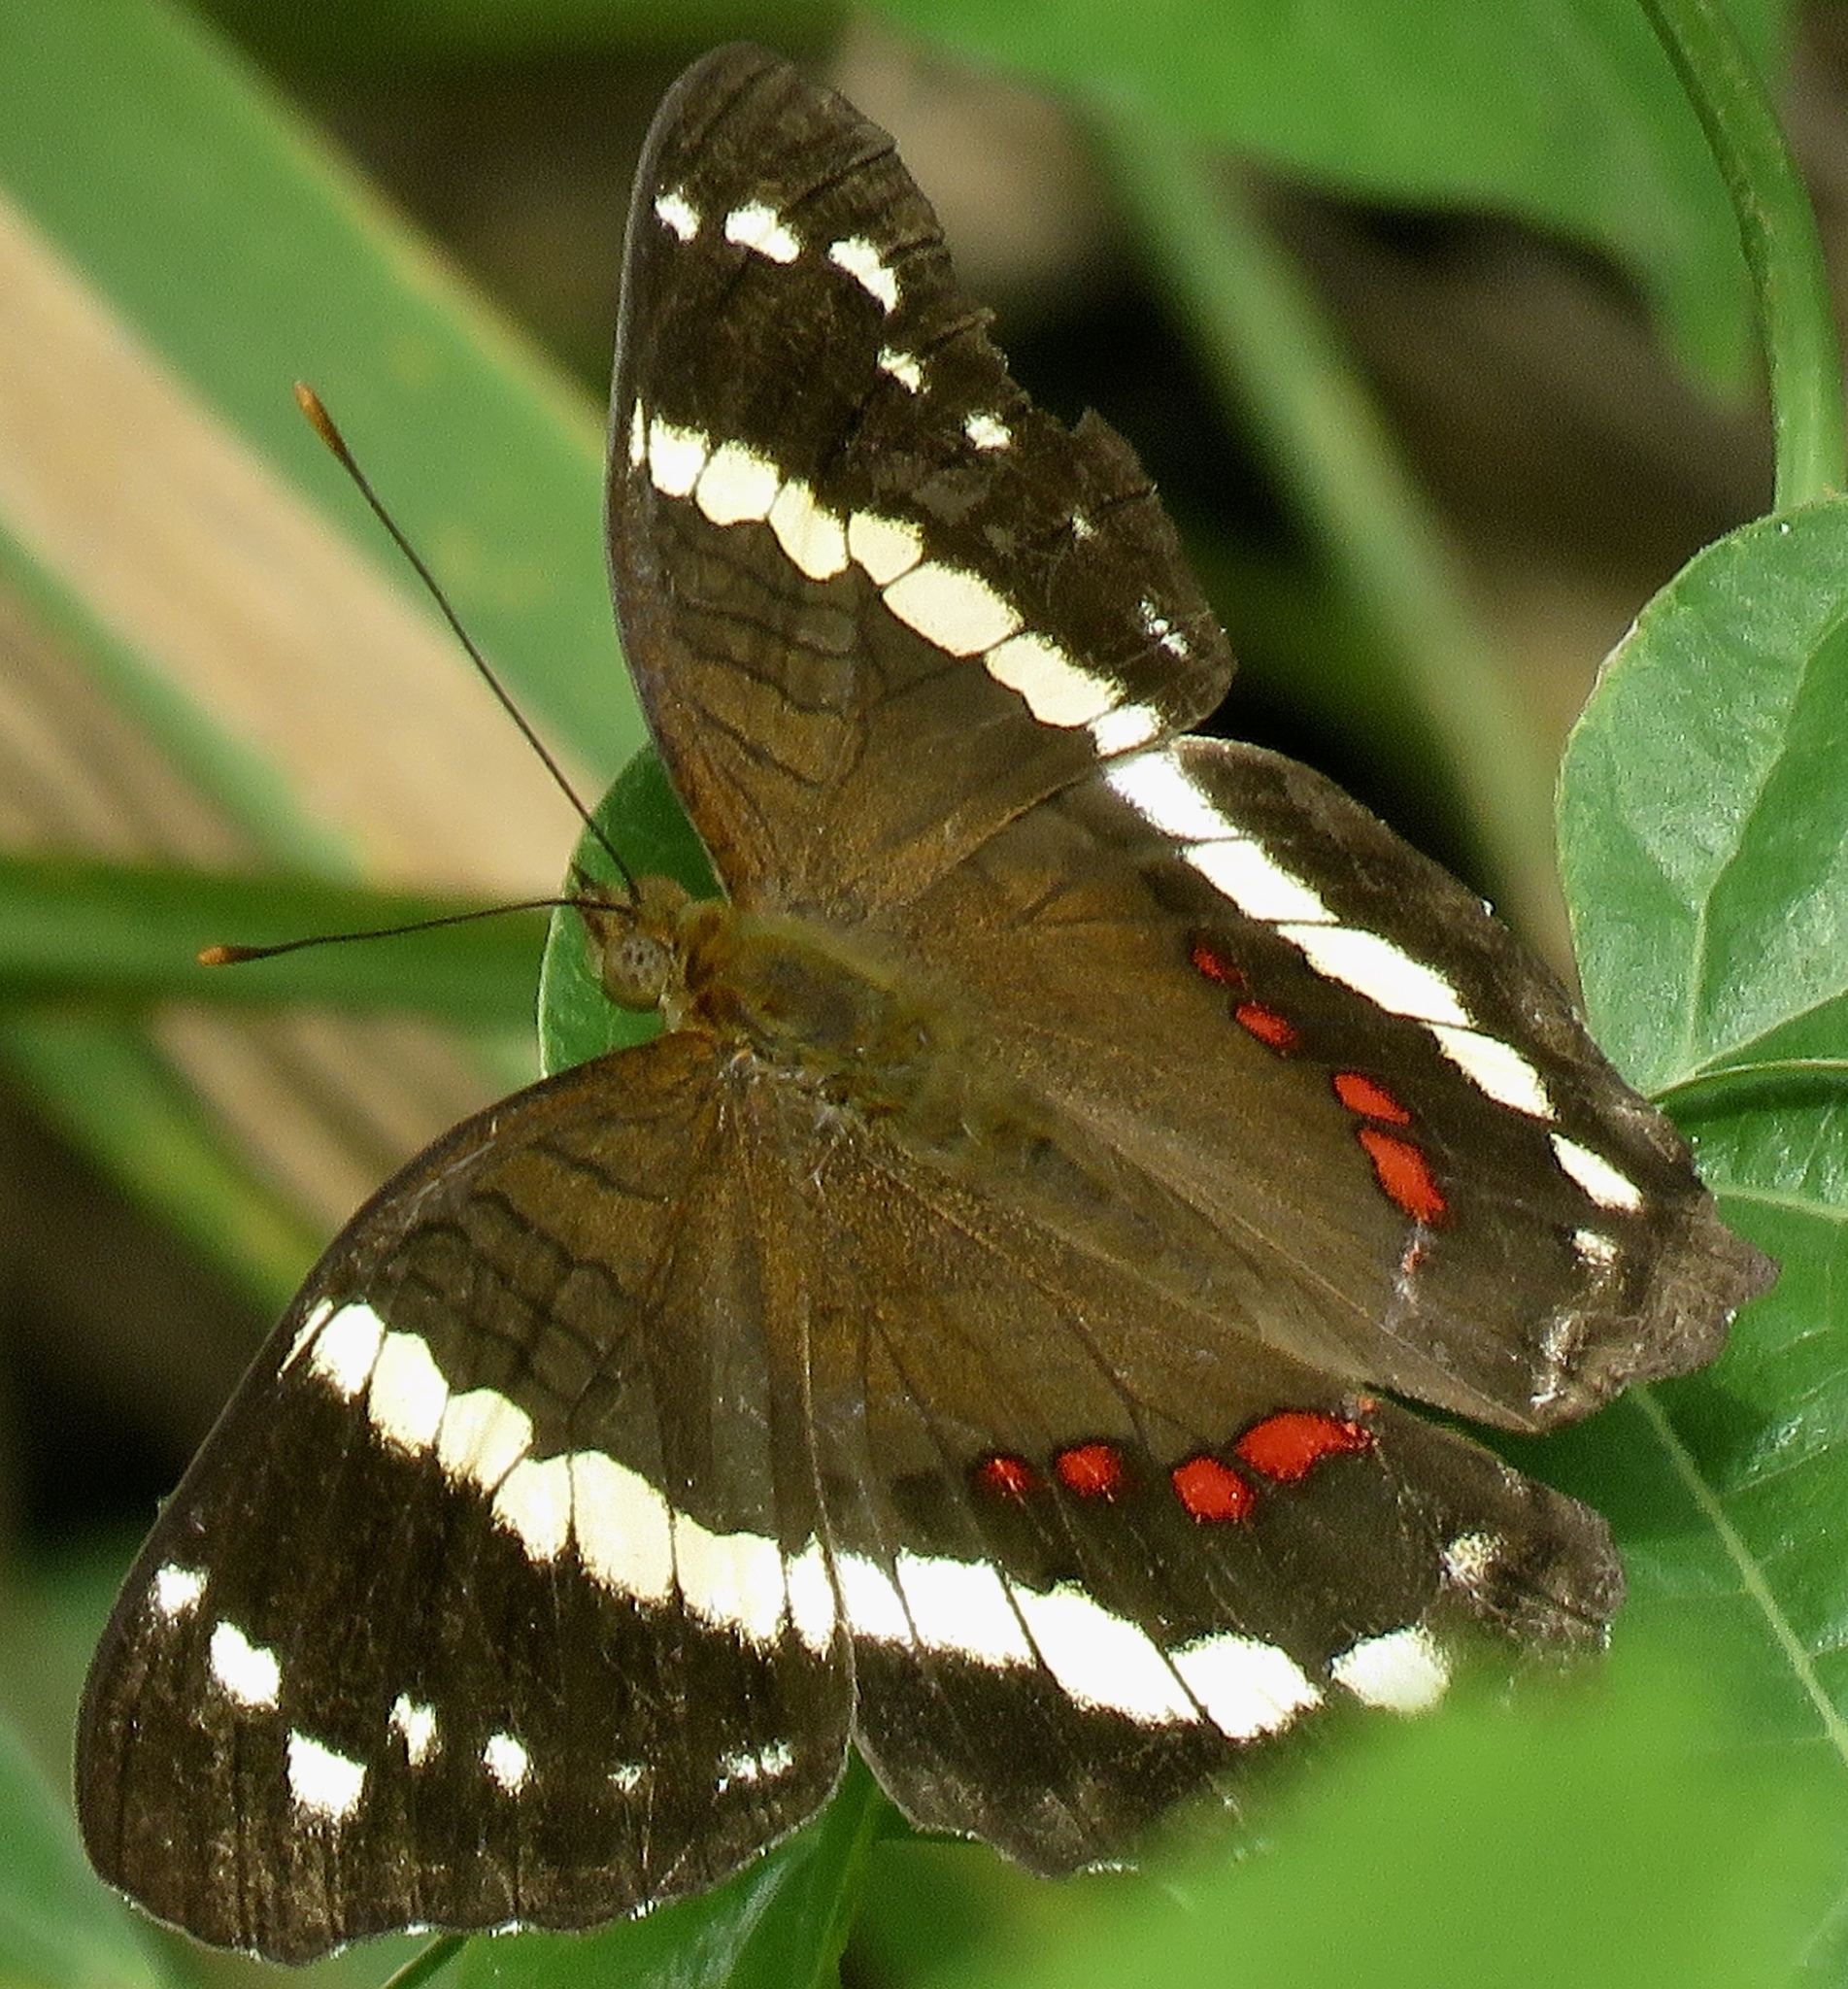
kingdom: Animalia
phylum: Arthropoda
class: Insecta
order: Lepidoptera
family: Nymphalidae
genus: Anartia
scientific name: Anartia fatima
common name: Banded peacock
